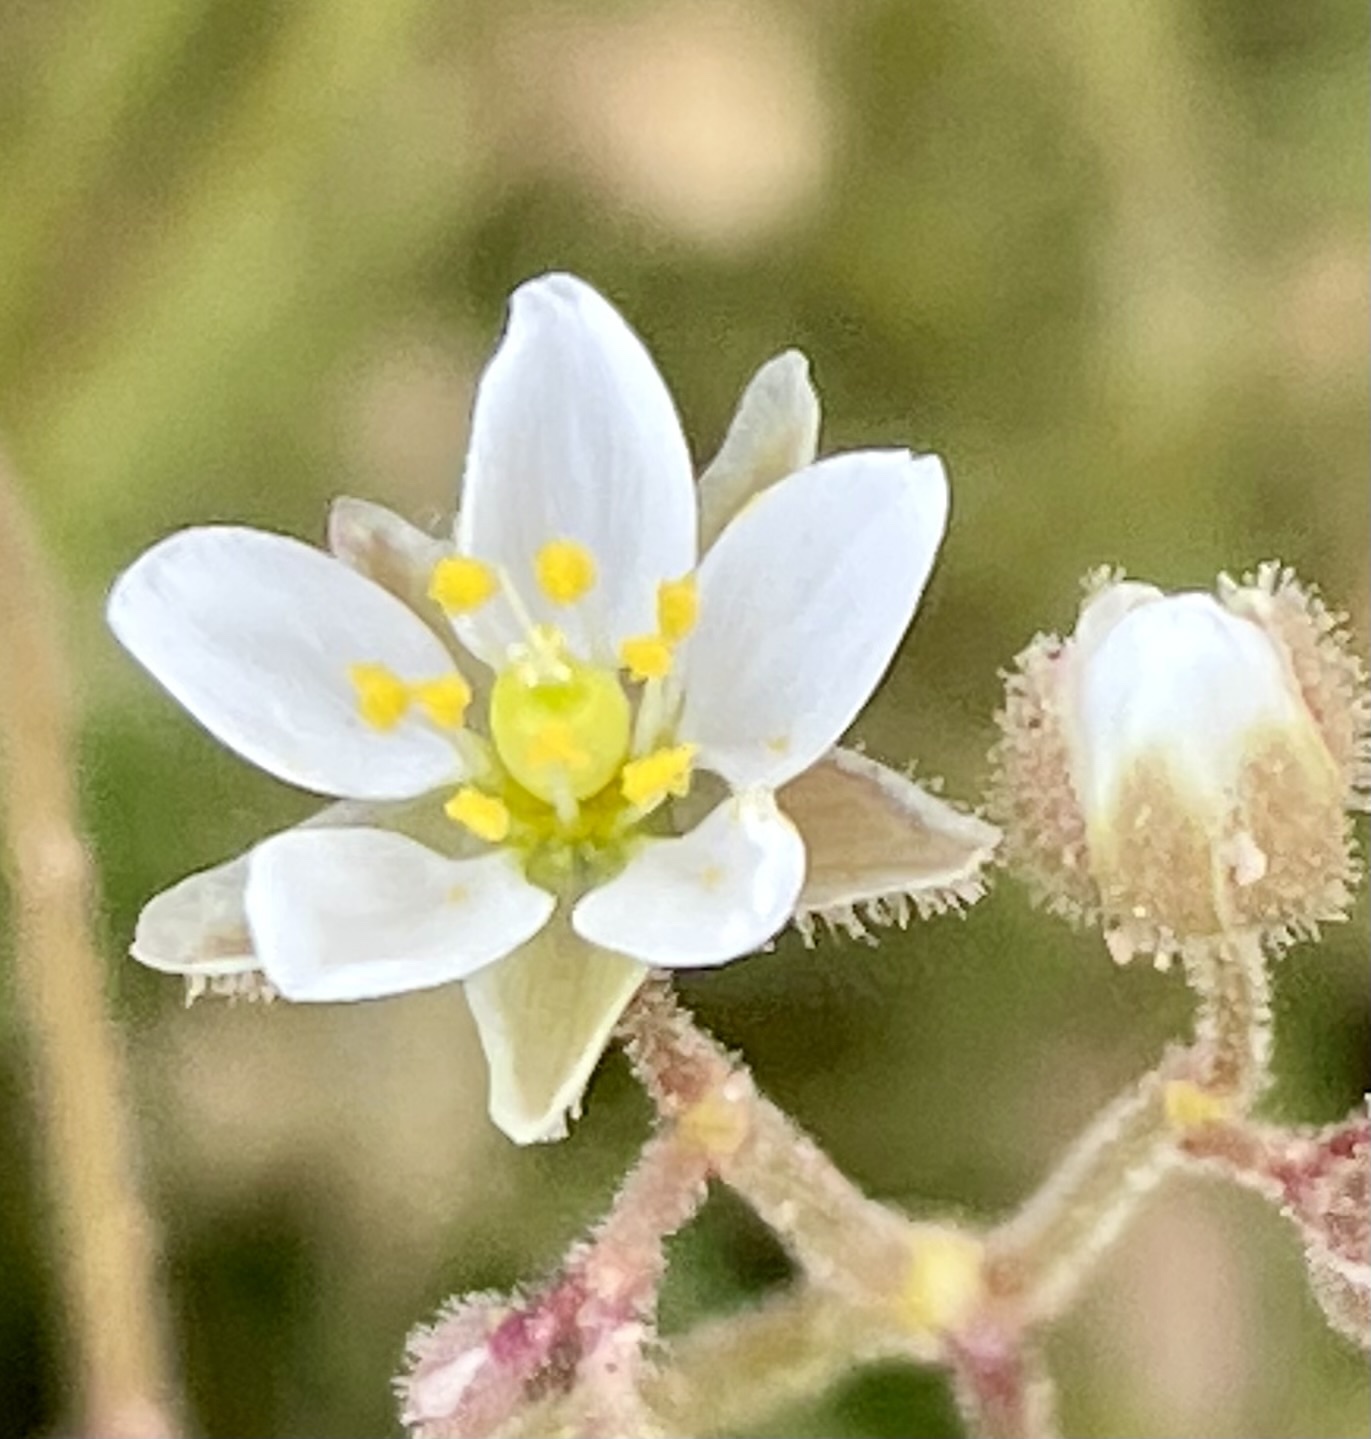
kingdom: Plantae
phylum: Tracheophyta
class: Magnoliopsida
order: Caryophyllales
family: Caryophyllaceae
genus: Spergula
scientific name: Spergula arvensis
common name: Corn spurrey
